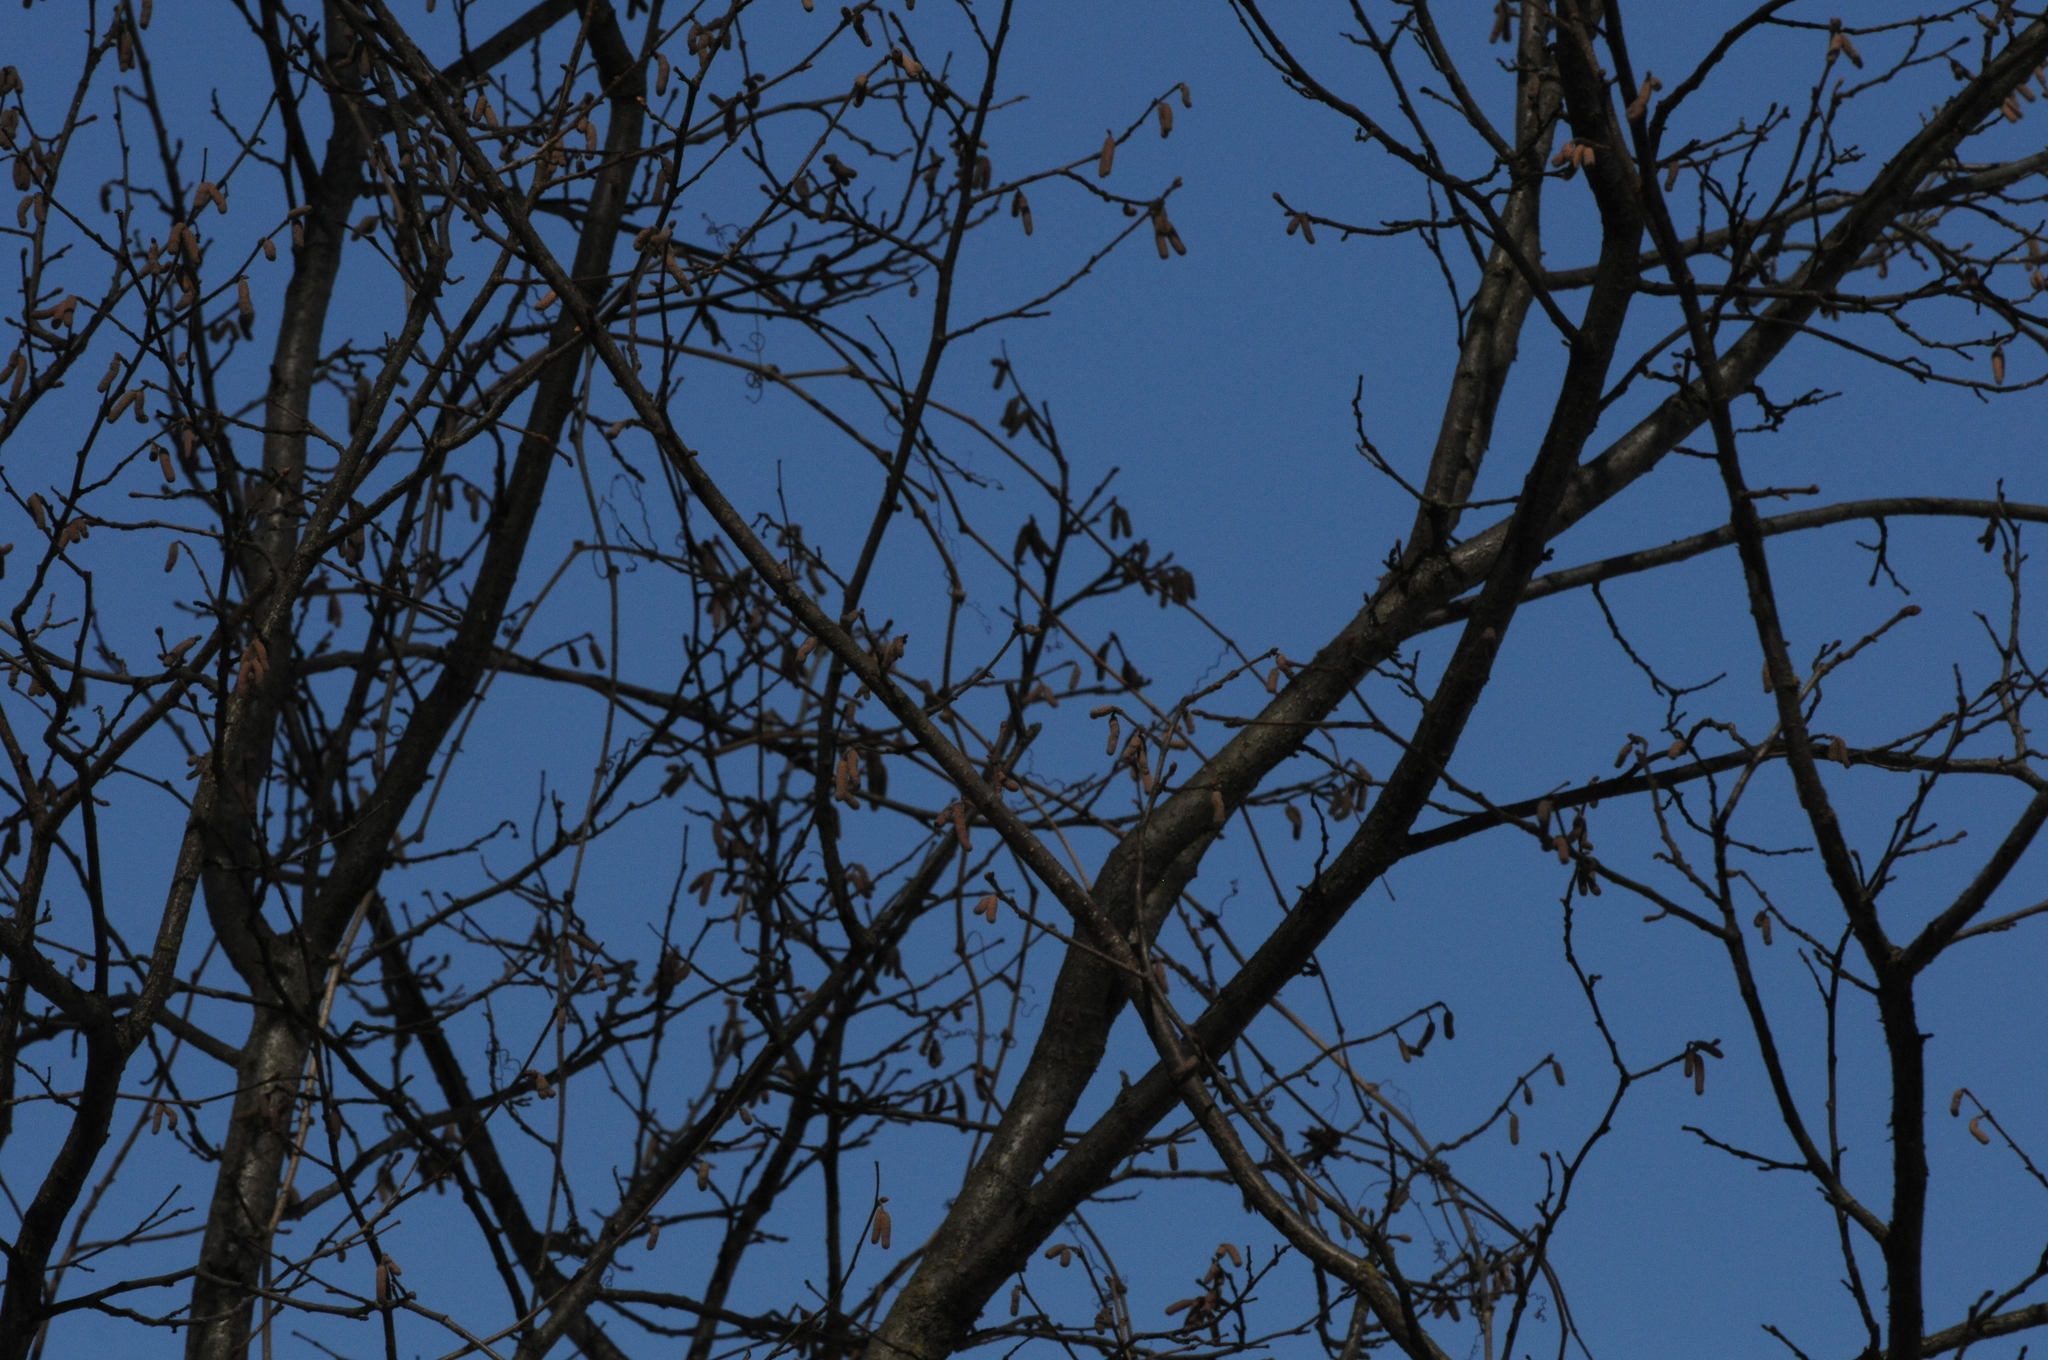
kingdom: Plantae
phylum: Tracheophyta
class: Magnoliopsida
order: Fagales
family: Betulaceae
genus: Corylus
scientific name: Corylus avellana
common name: European hazel
